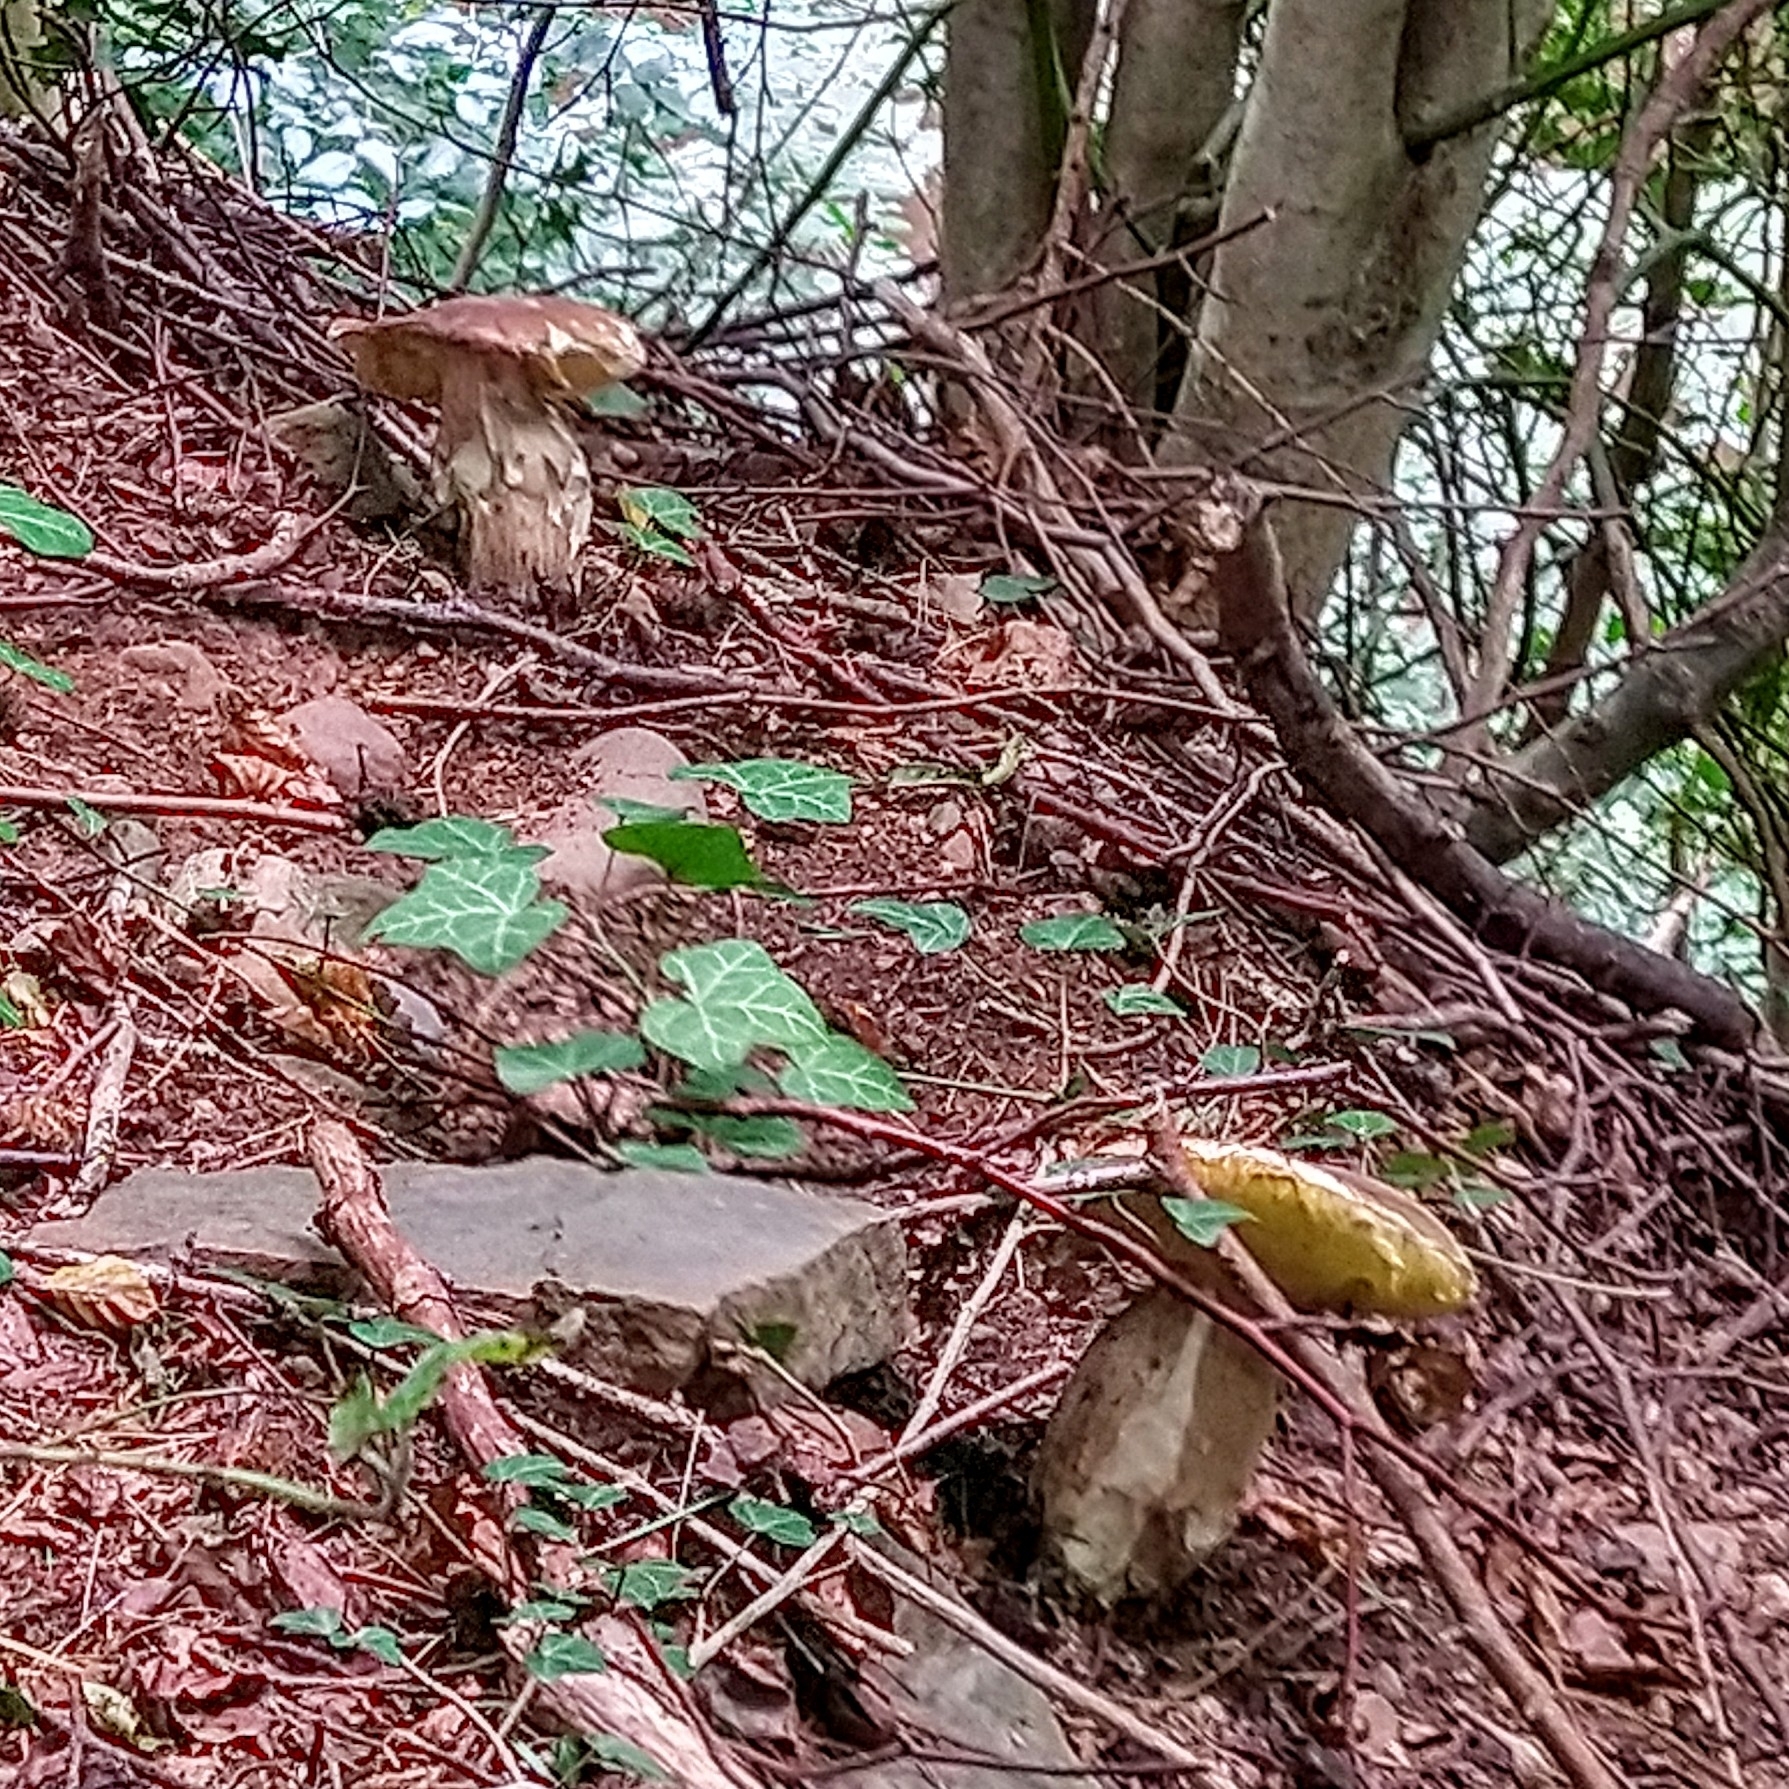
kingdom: Fungi
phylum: Basidiomycota
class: Agaricomycetes
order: Boletales
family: Boletaceae
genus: Boletus
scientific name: Boletus edulis
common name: Cep
